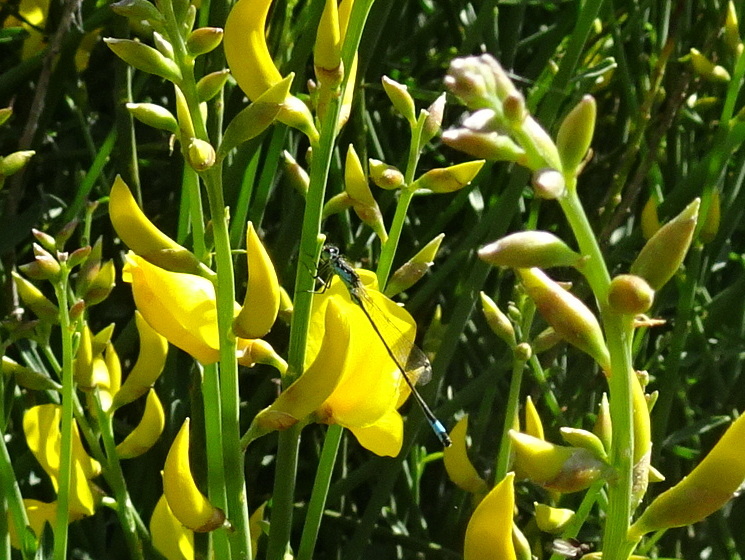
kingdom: Animalia
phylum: Arthropoda
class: Insecta
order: Odonata
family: Coenagrionidae
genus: Ischnura
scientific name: Ischnura elegans
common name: Blue-tailed damselfly
